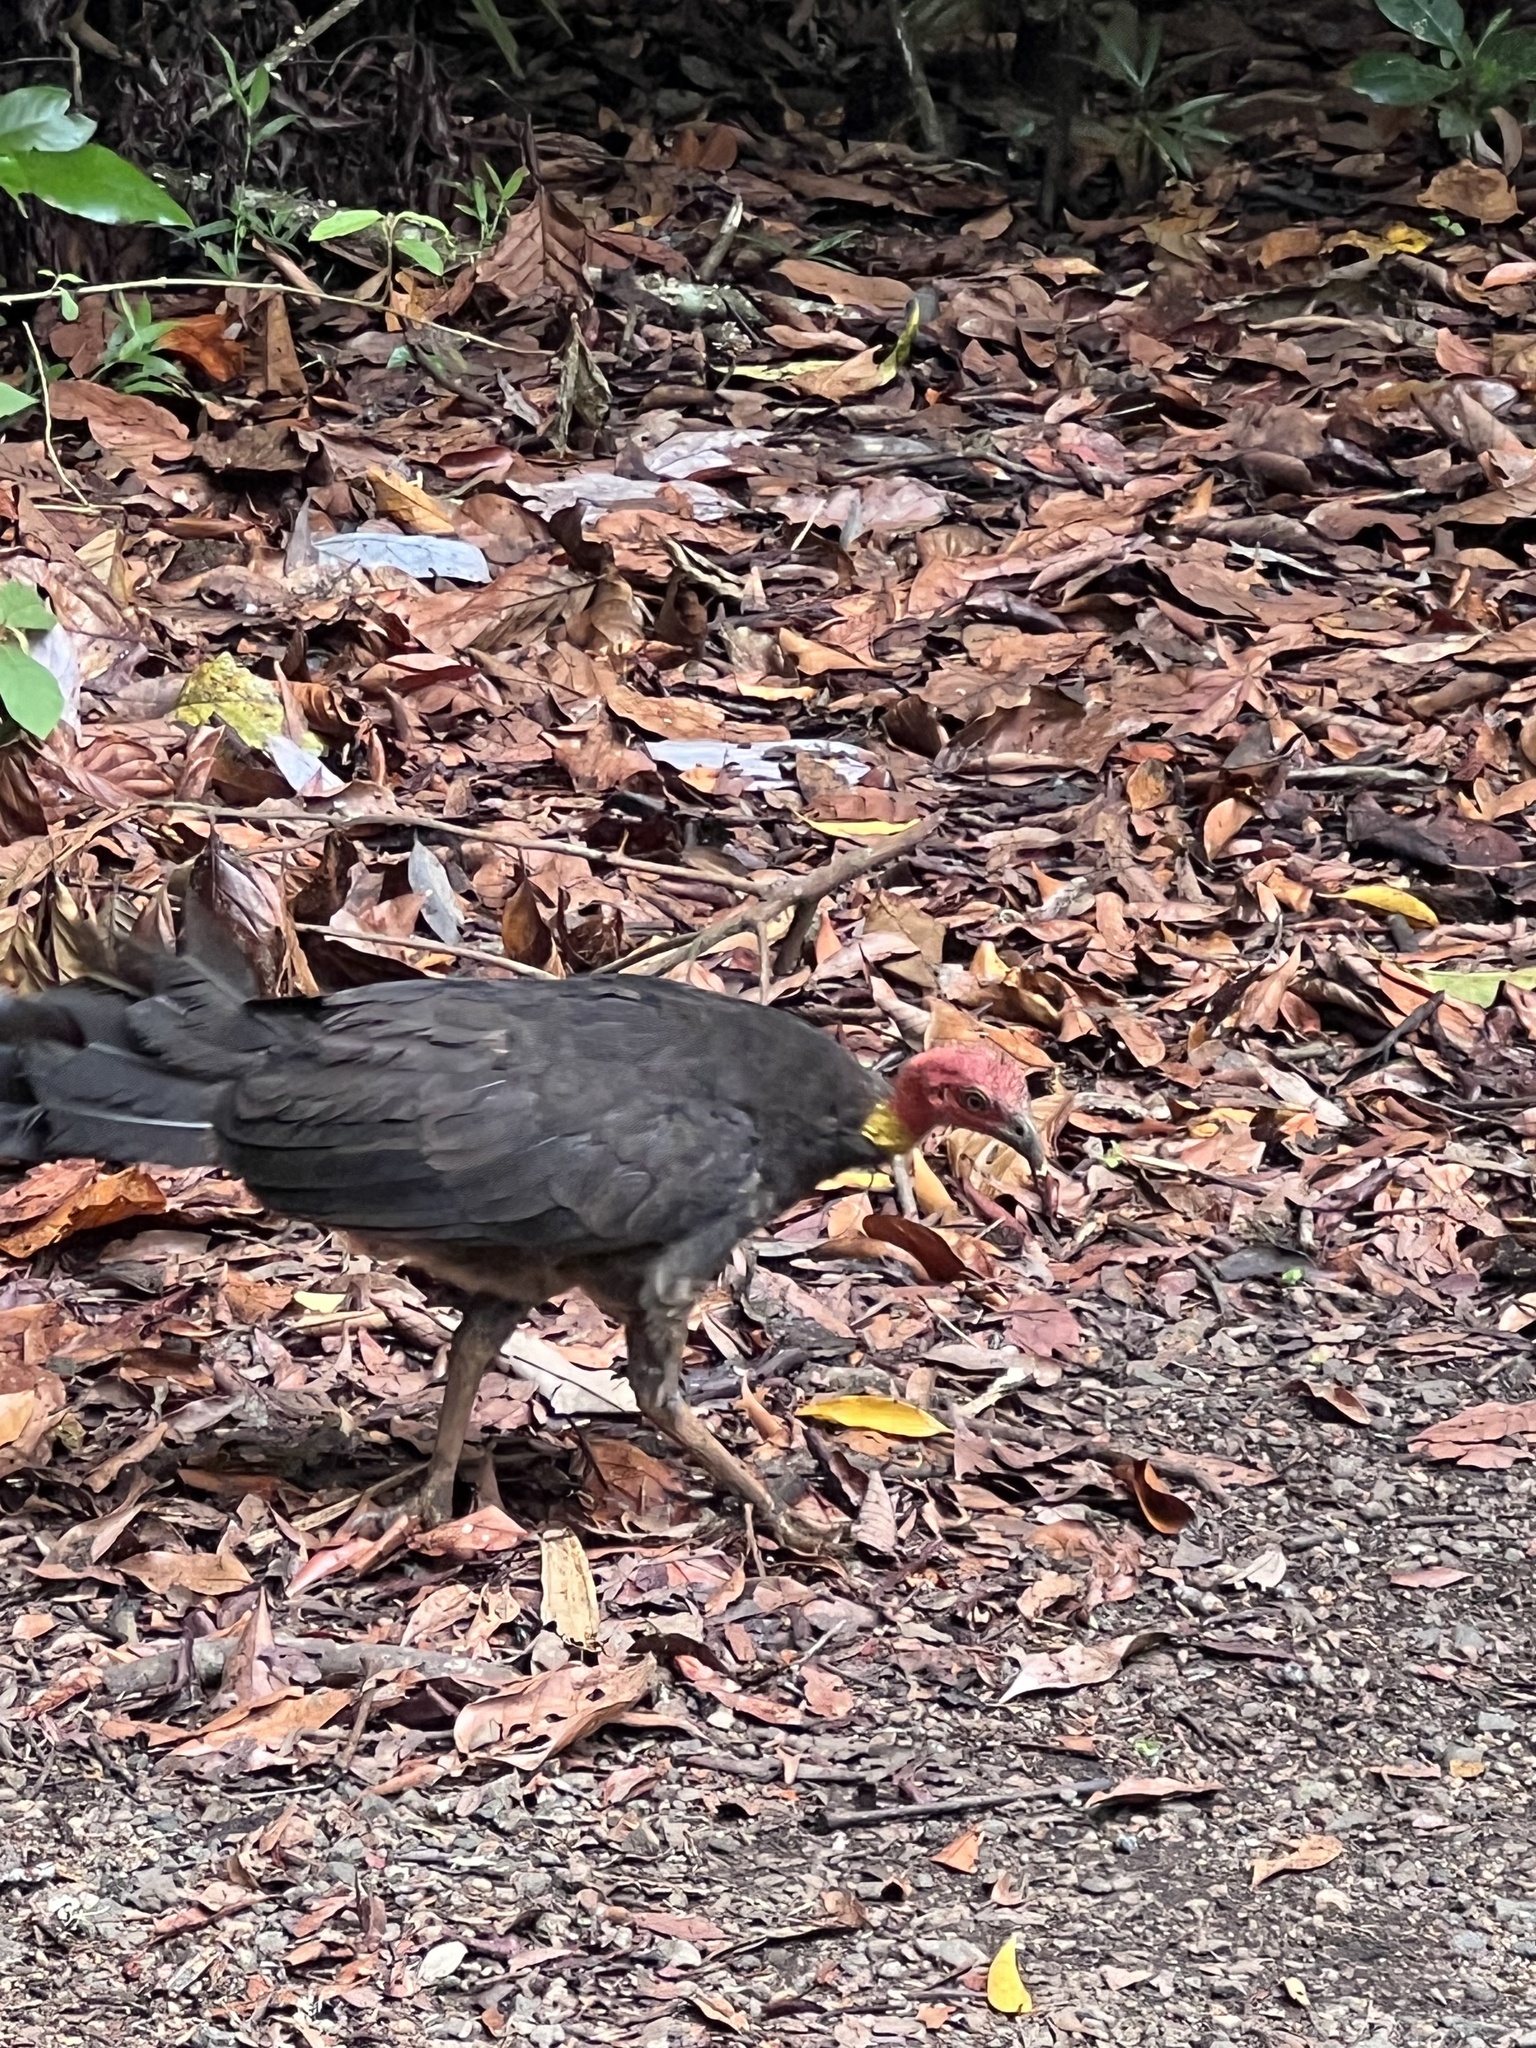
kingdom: Animalia
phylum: Chordata
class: Aves
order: Galliformes
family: Megapodiidae
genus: Alectura
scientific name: Alectura lathami
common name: Australian brushturkey
